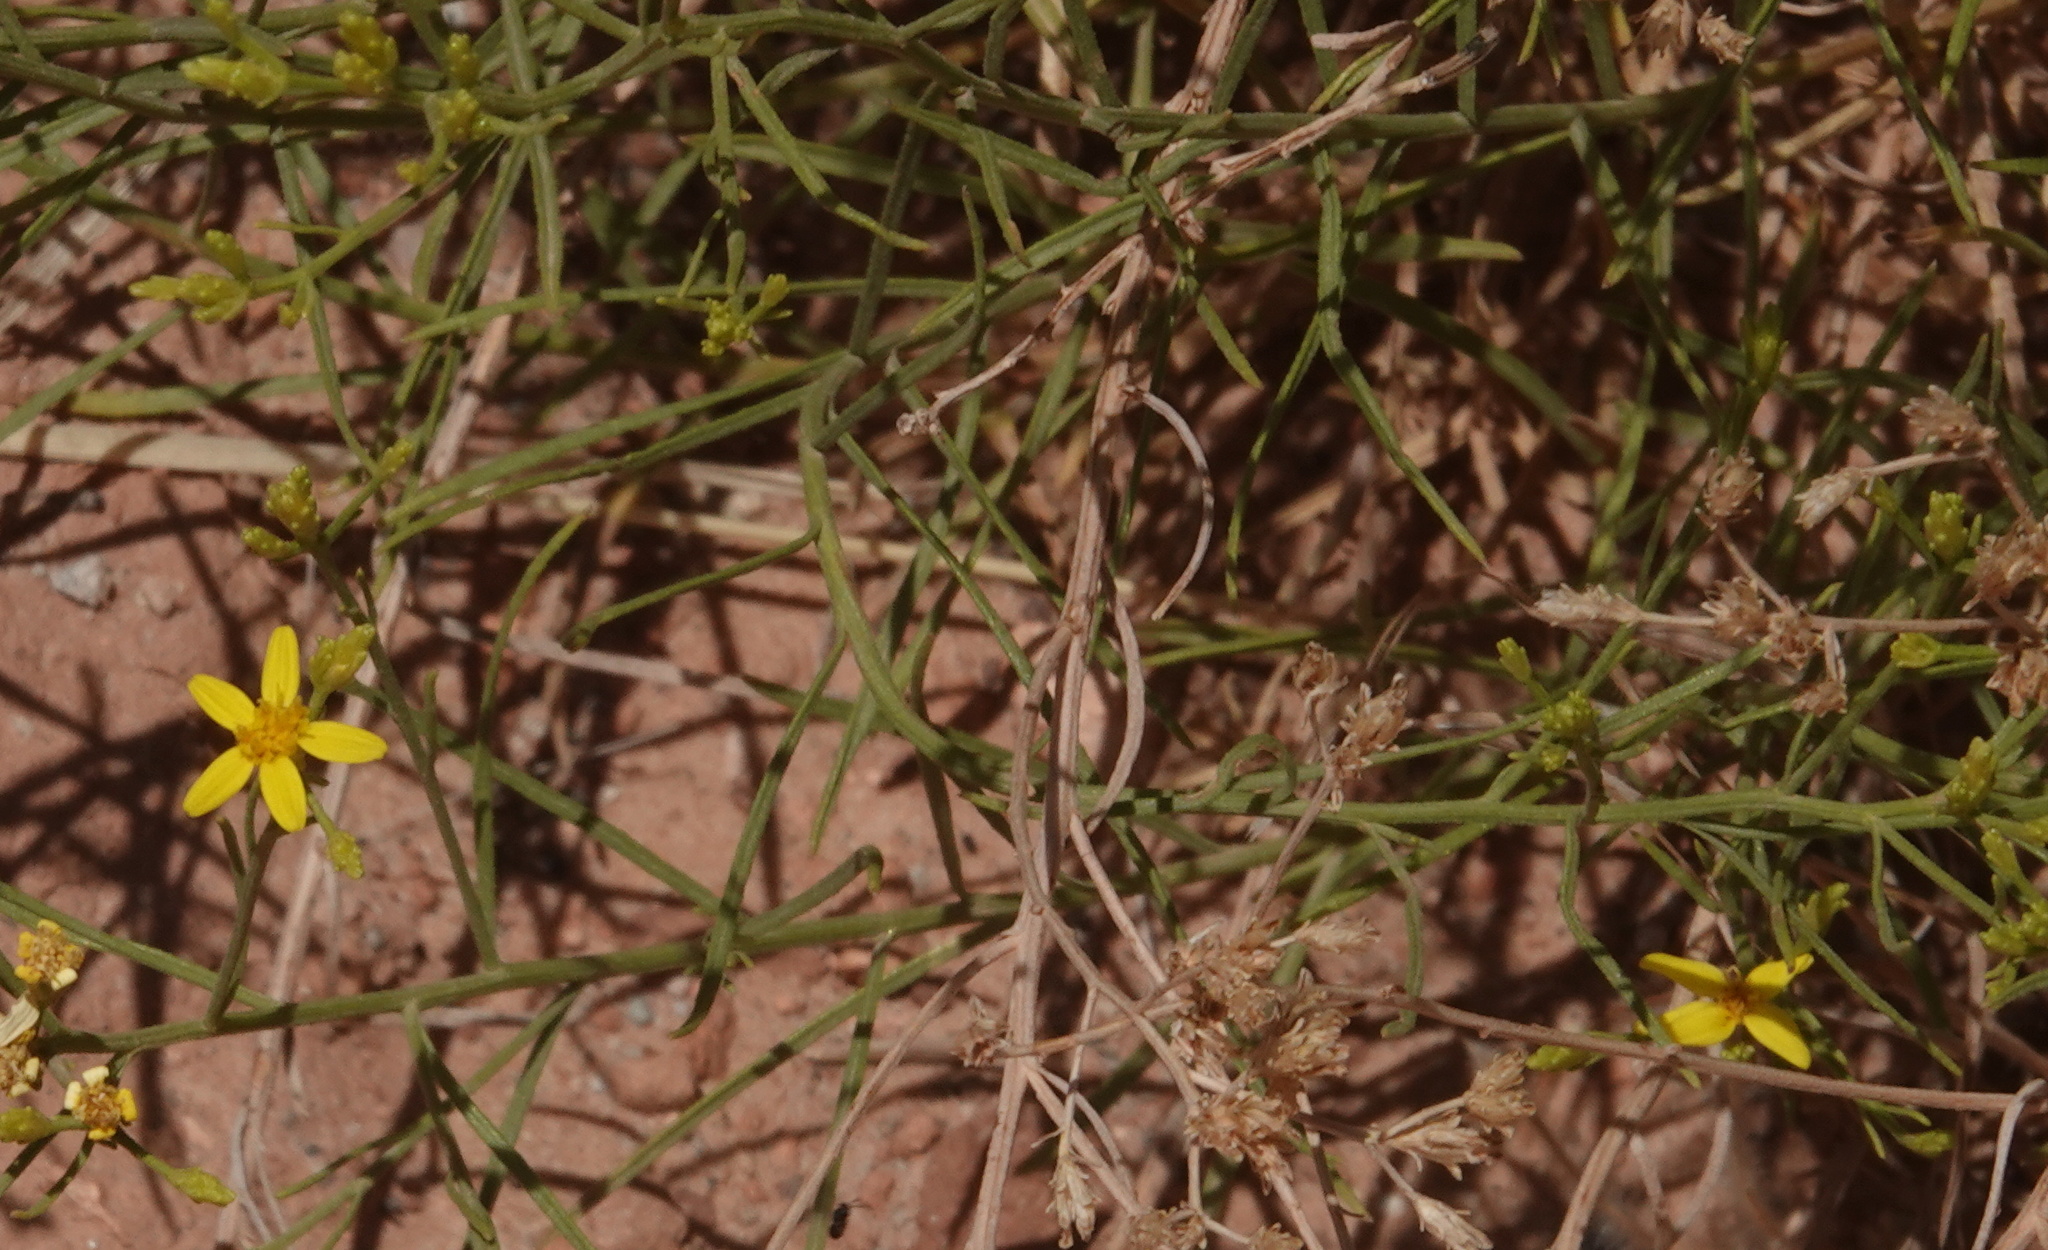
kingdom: Plantae
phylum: Tracheophyta
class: Magnoliopsida
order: Asterales
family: Asteraceae
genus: Gutierrezia
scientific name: Gutierrezia sarothrae
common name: Broom snakeweed
